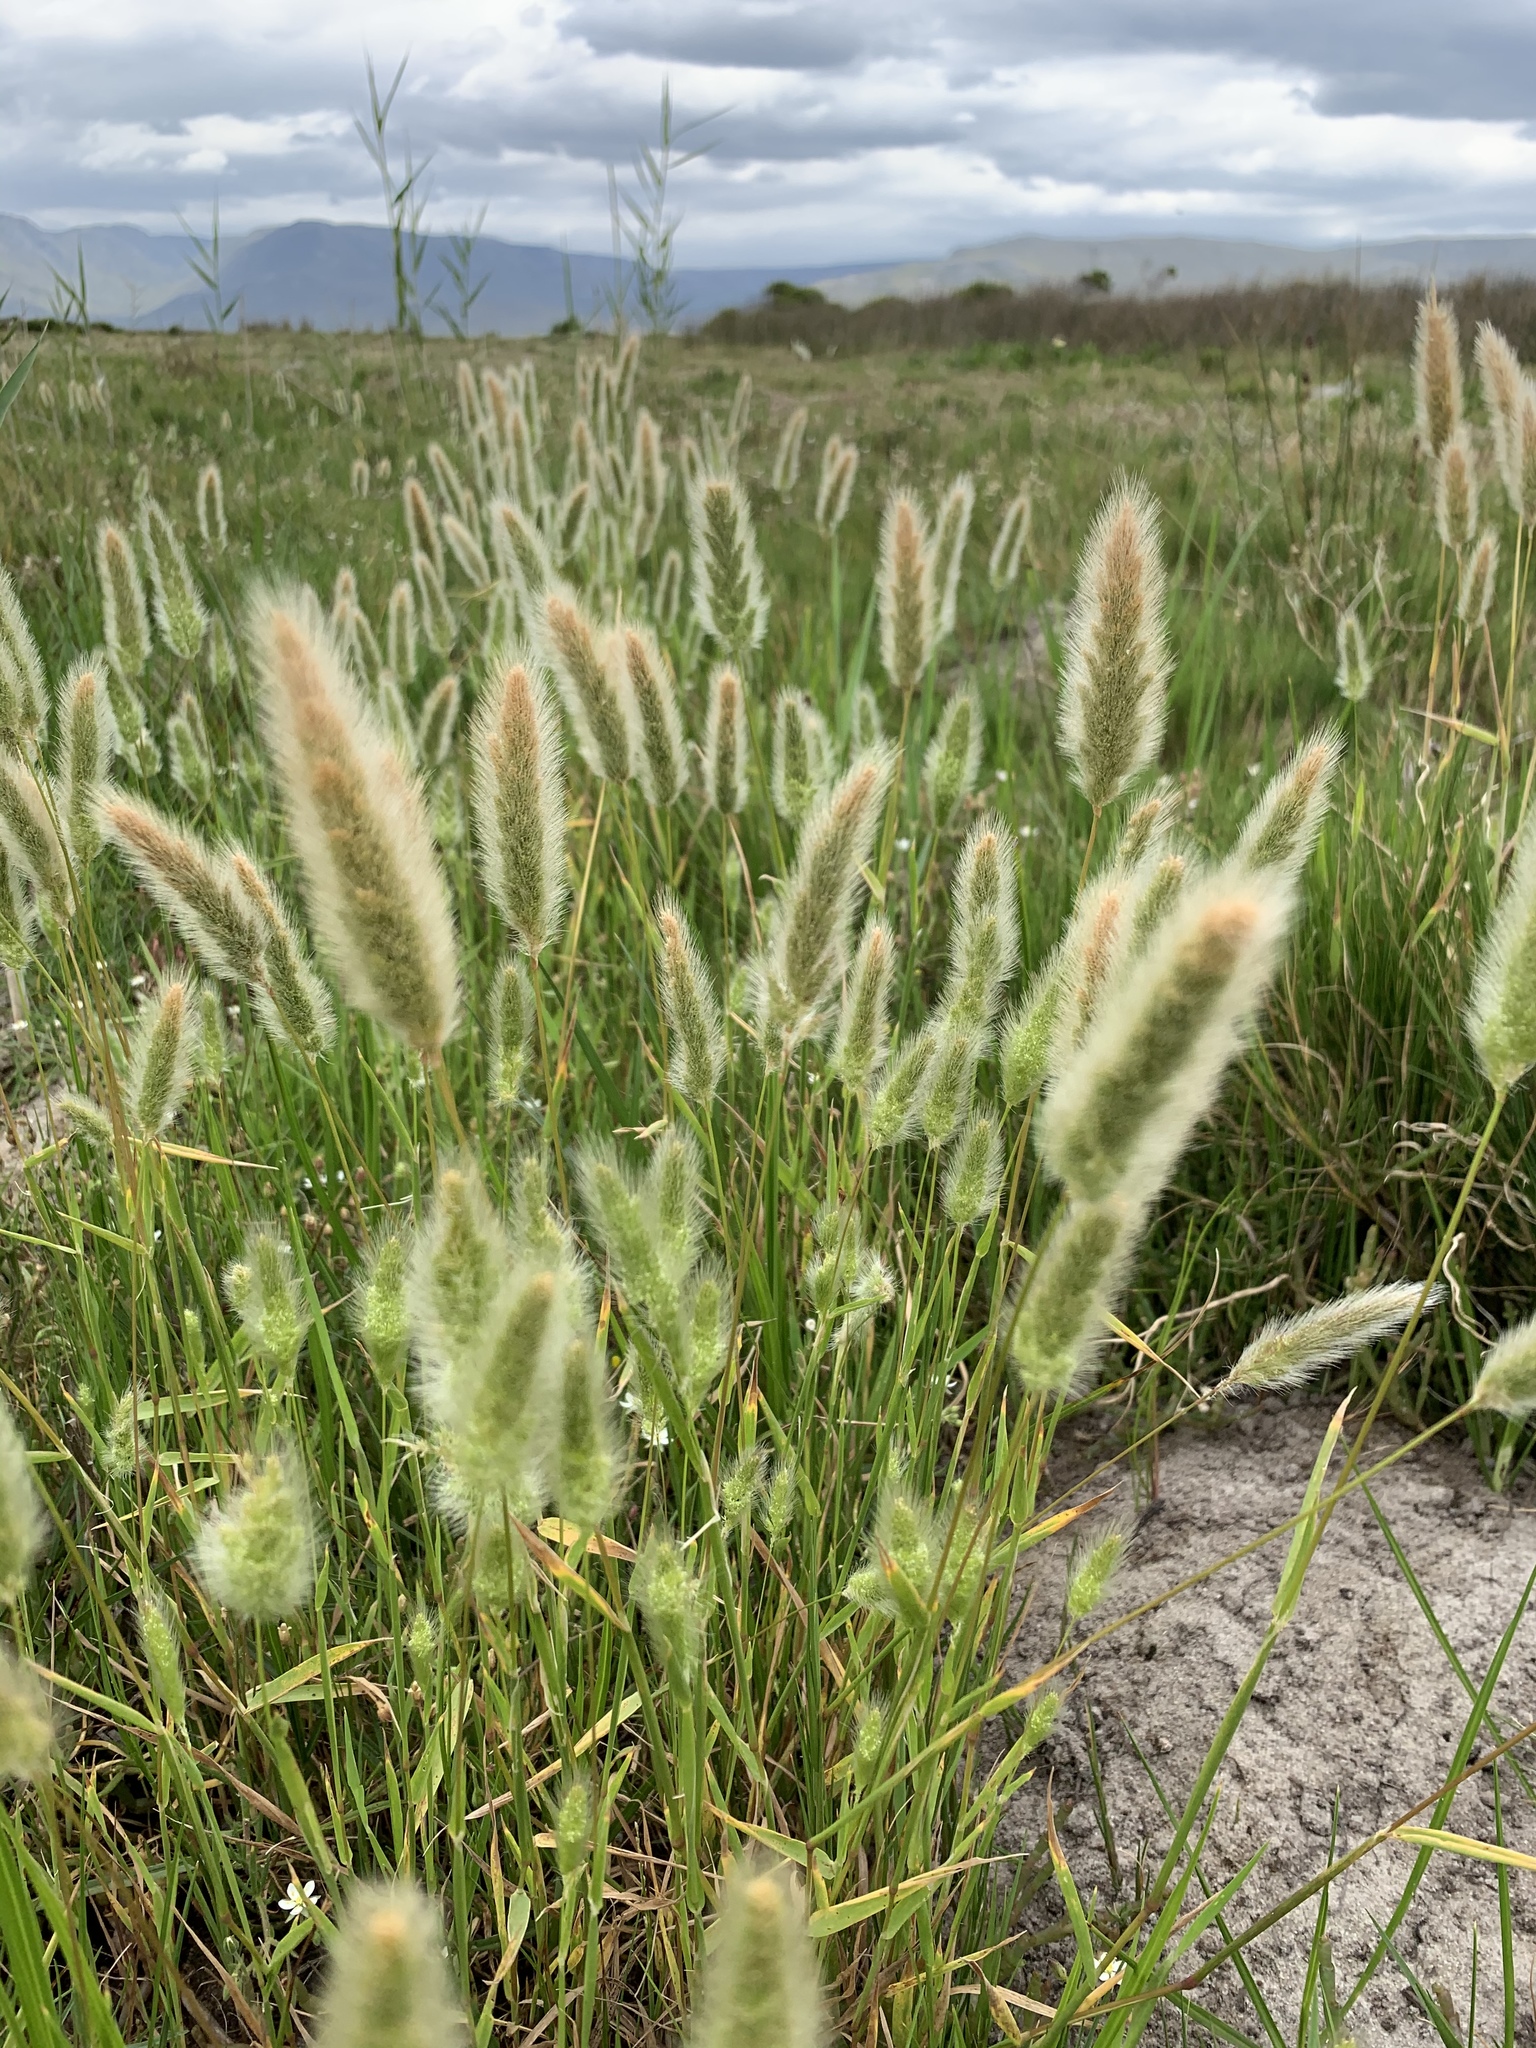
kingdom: Plantae
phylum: Tracheophyta
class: Liliopsida
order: Poales
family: Poaceae
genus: Polypogon
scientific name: Polypogon monspeliensis
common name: Annual rabbitsfoot grass
